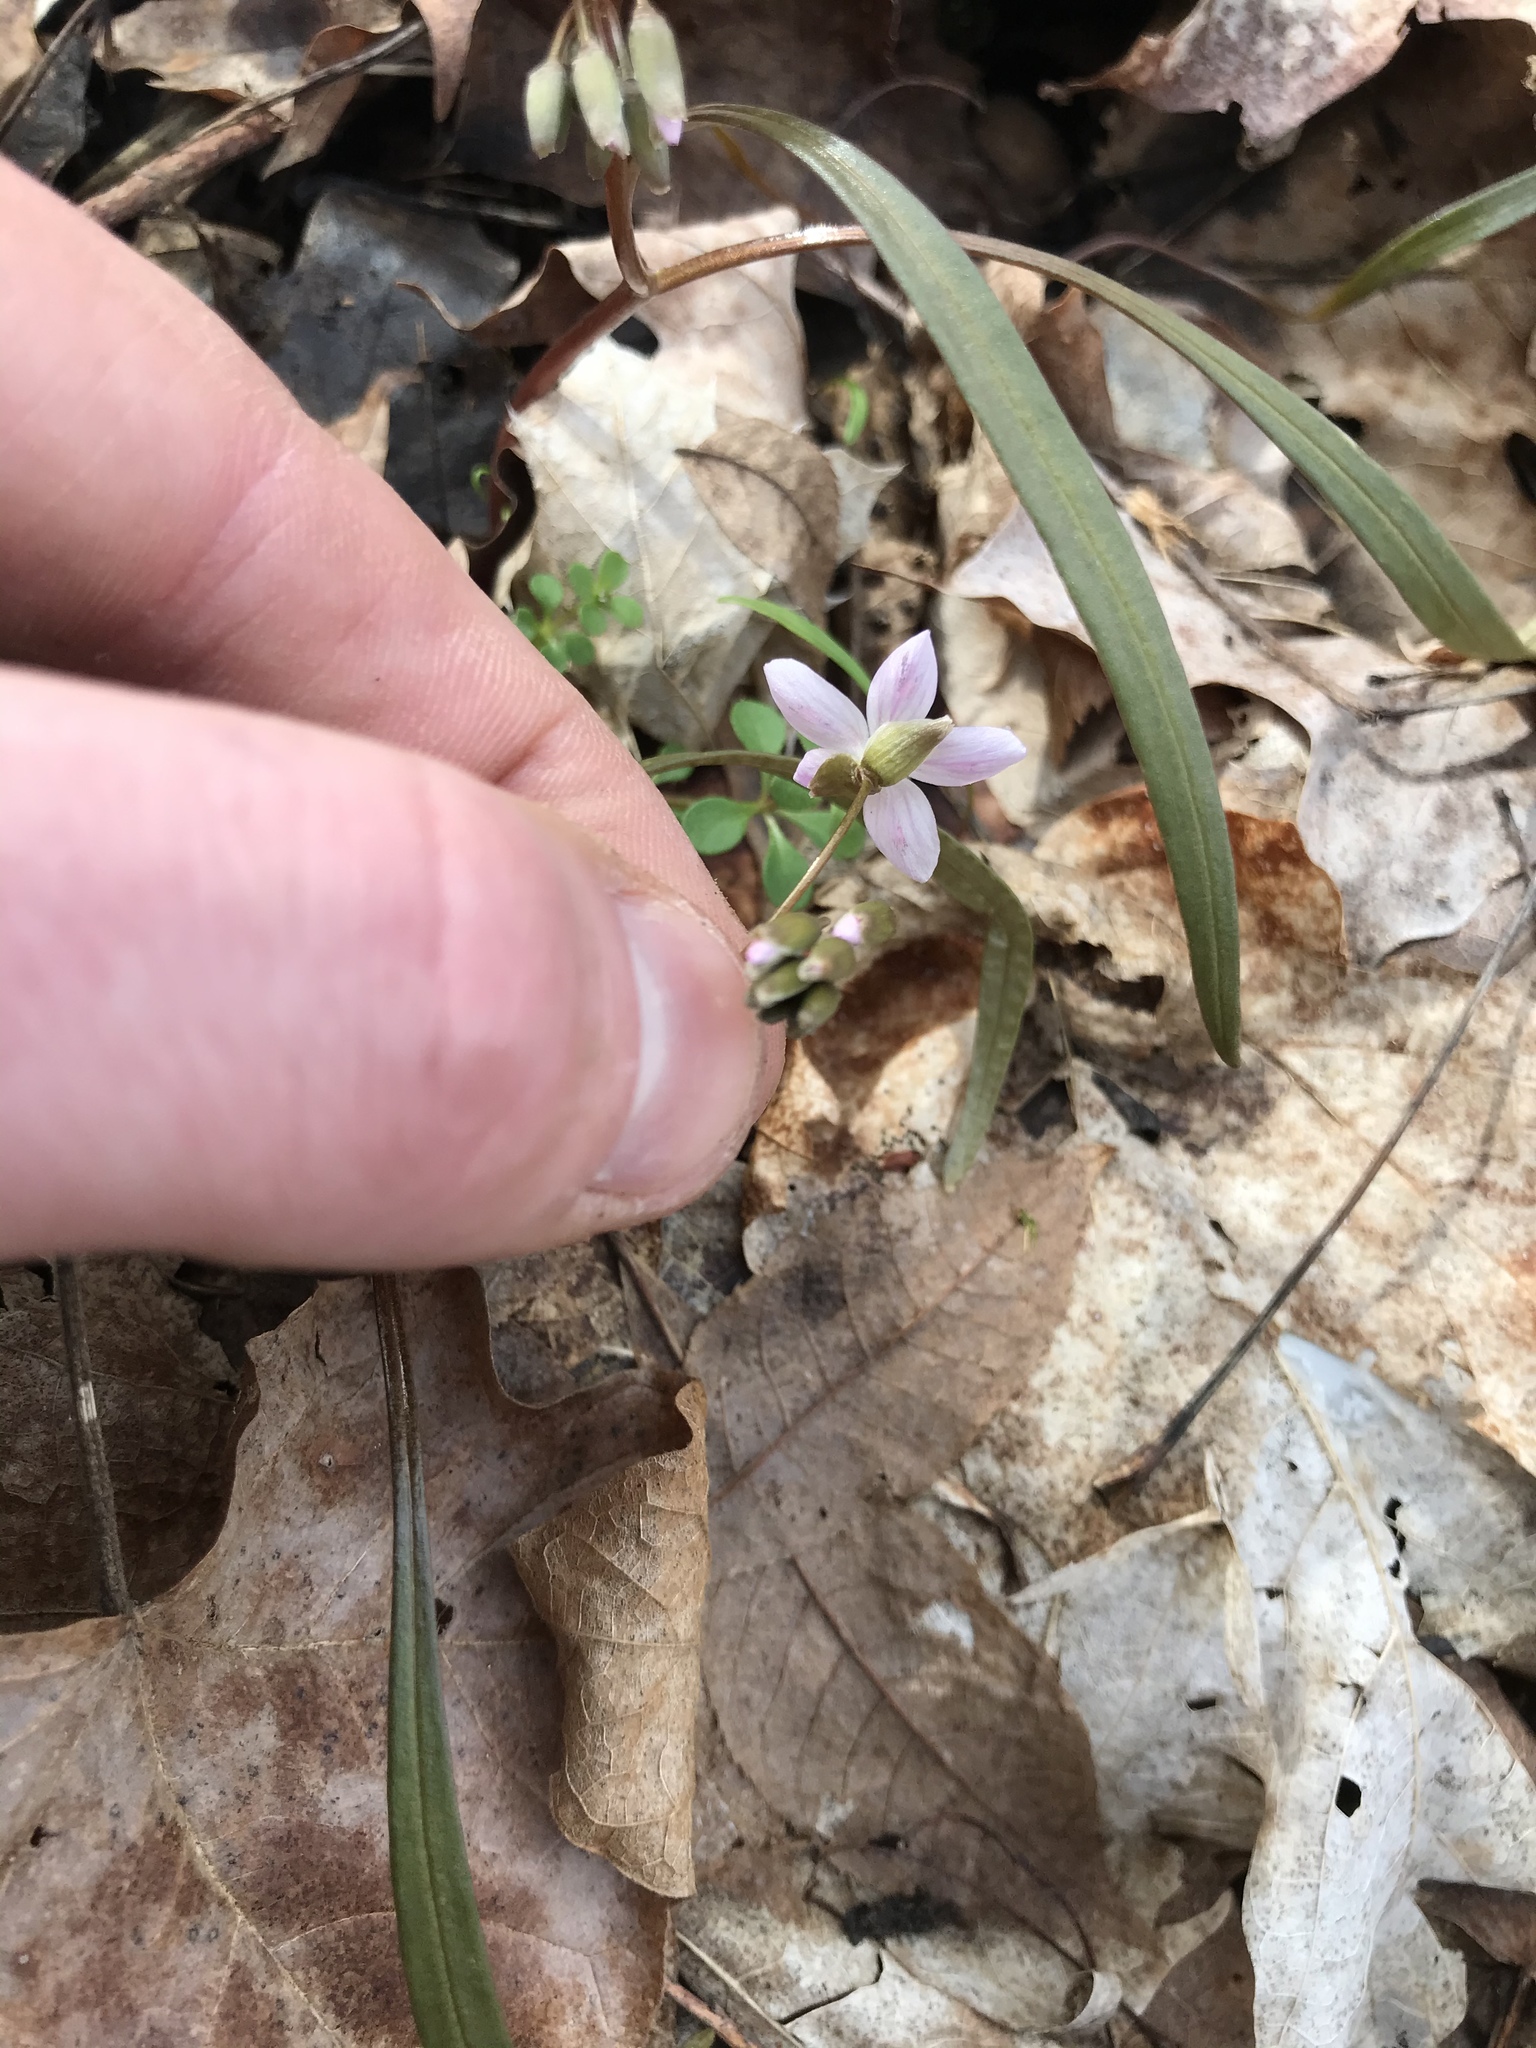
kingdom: Plantae
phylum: Tracheophyta
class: Magnoliopsida
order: Caryophyllales
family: Montiaceae
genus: Claytonia
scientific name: Claytonia virginica
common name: Virginia springbeauty
